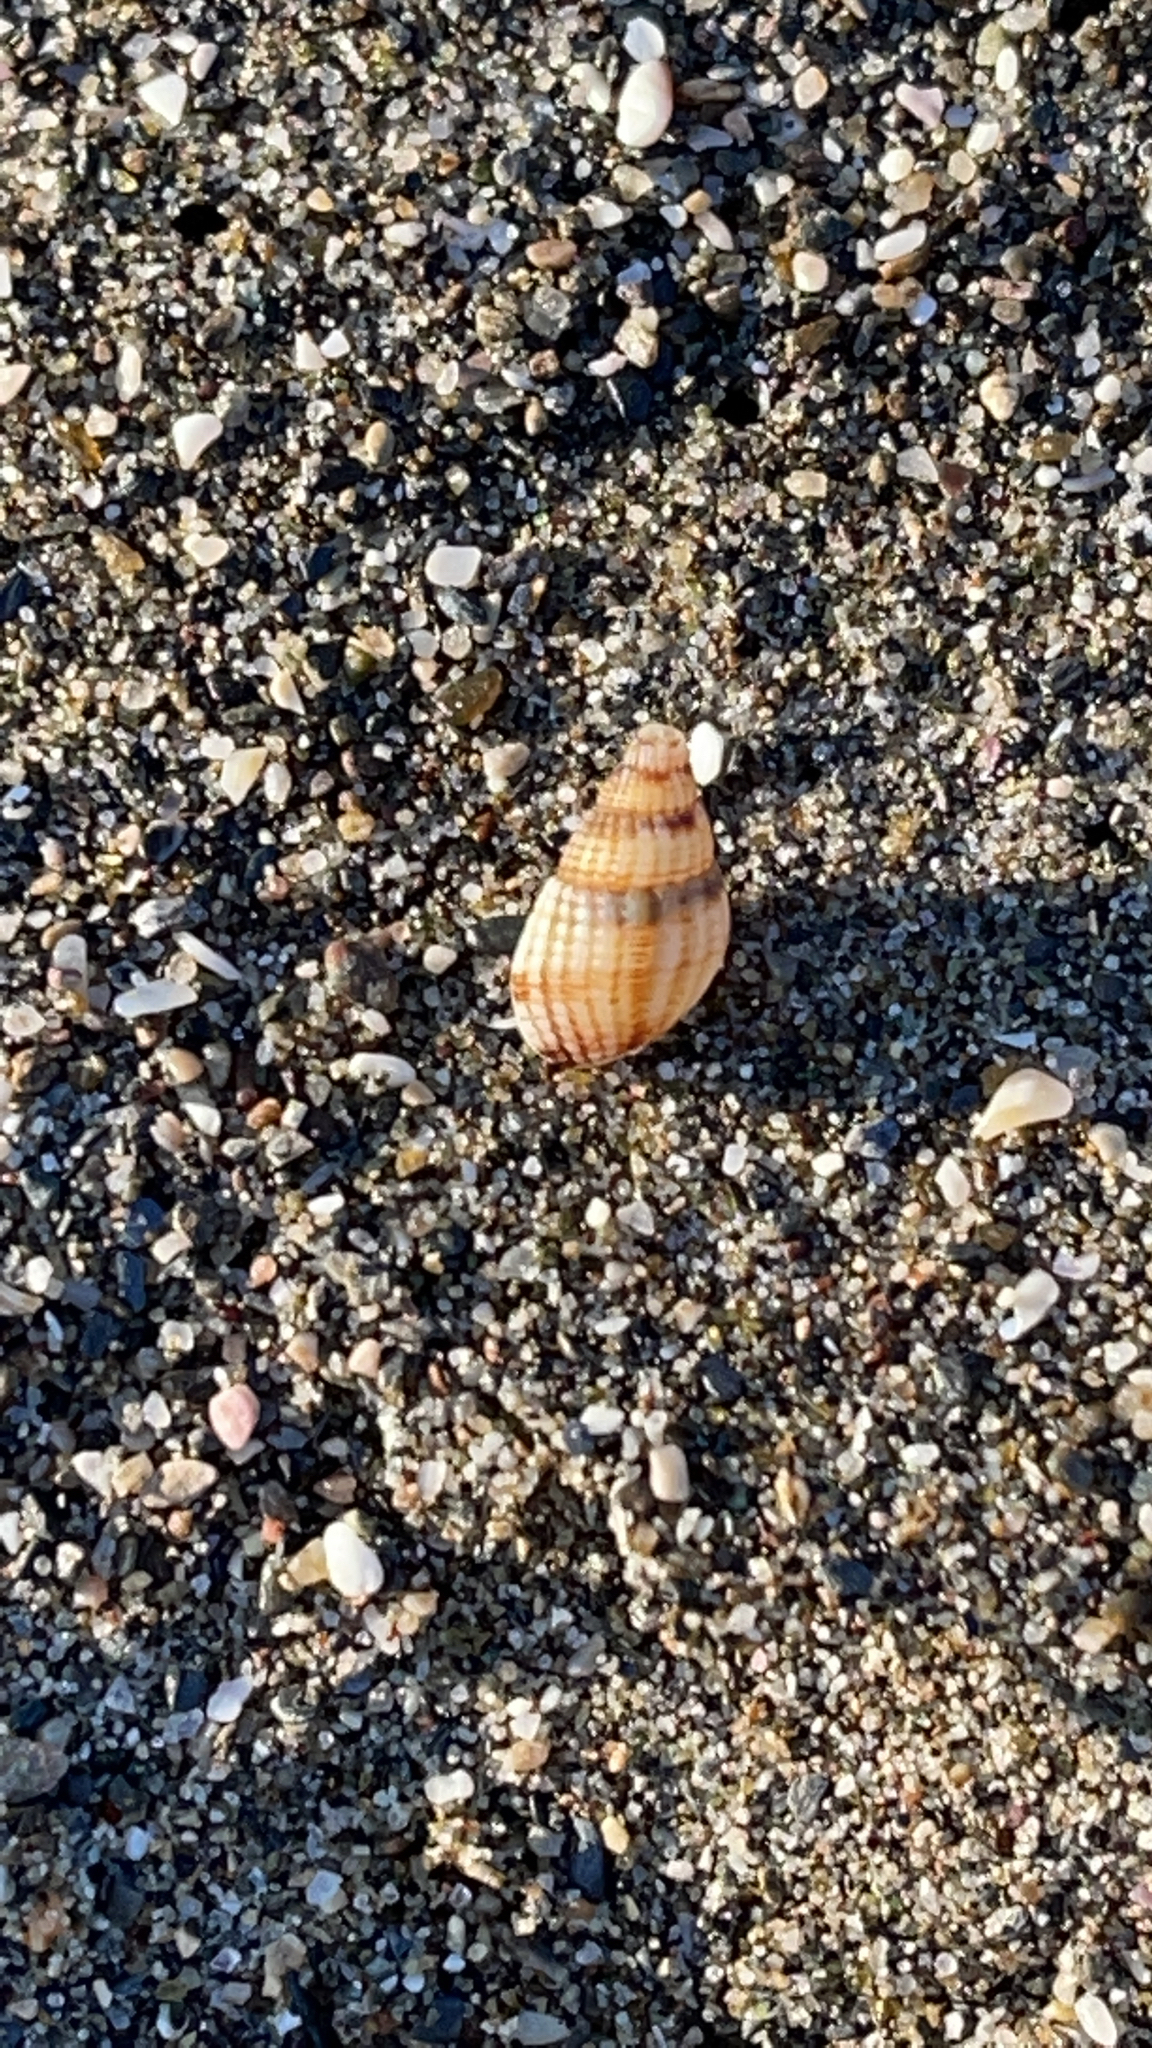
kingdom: Animalia
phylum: Mollusca
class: Gastropoda
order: Neogastropoda
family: Nassariidae
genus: Tritia
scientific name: Tritia reticulata
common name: Netted dog whelk
